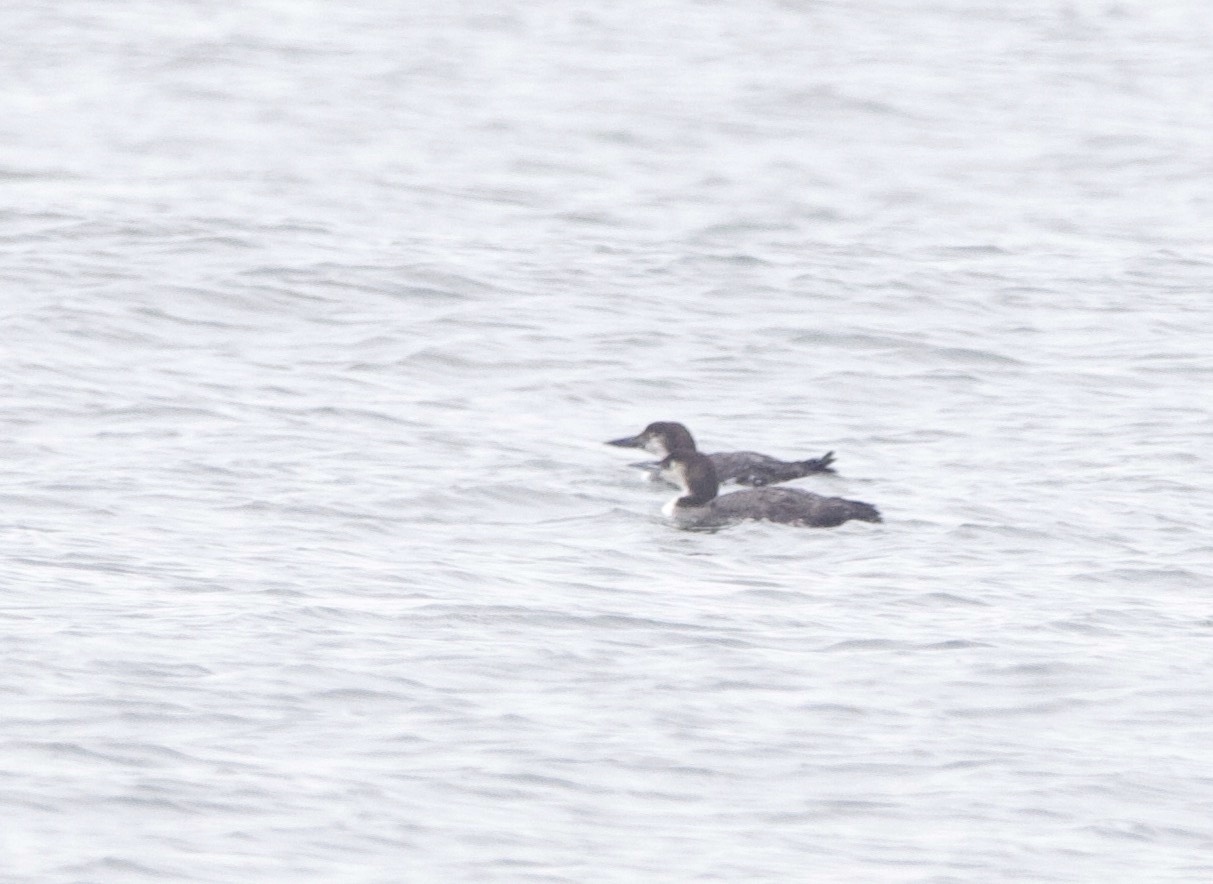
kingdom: Animalia
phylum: Chordata
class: Aves
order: Gaviiformes
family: Gaviidae
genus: Gavia
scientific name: Gavia immer
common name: Common loon
